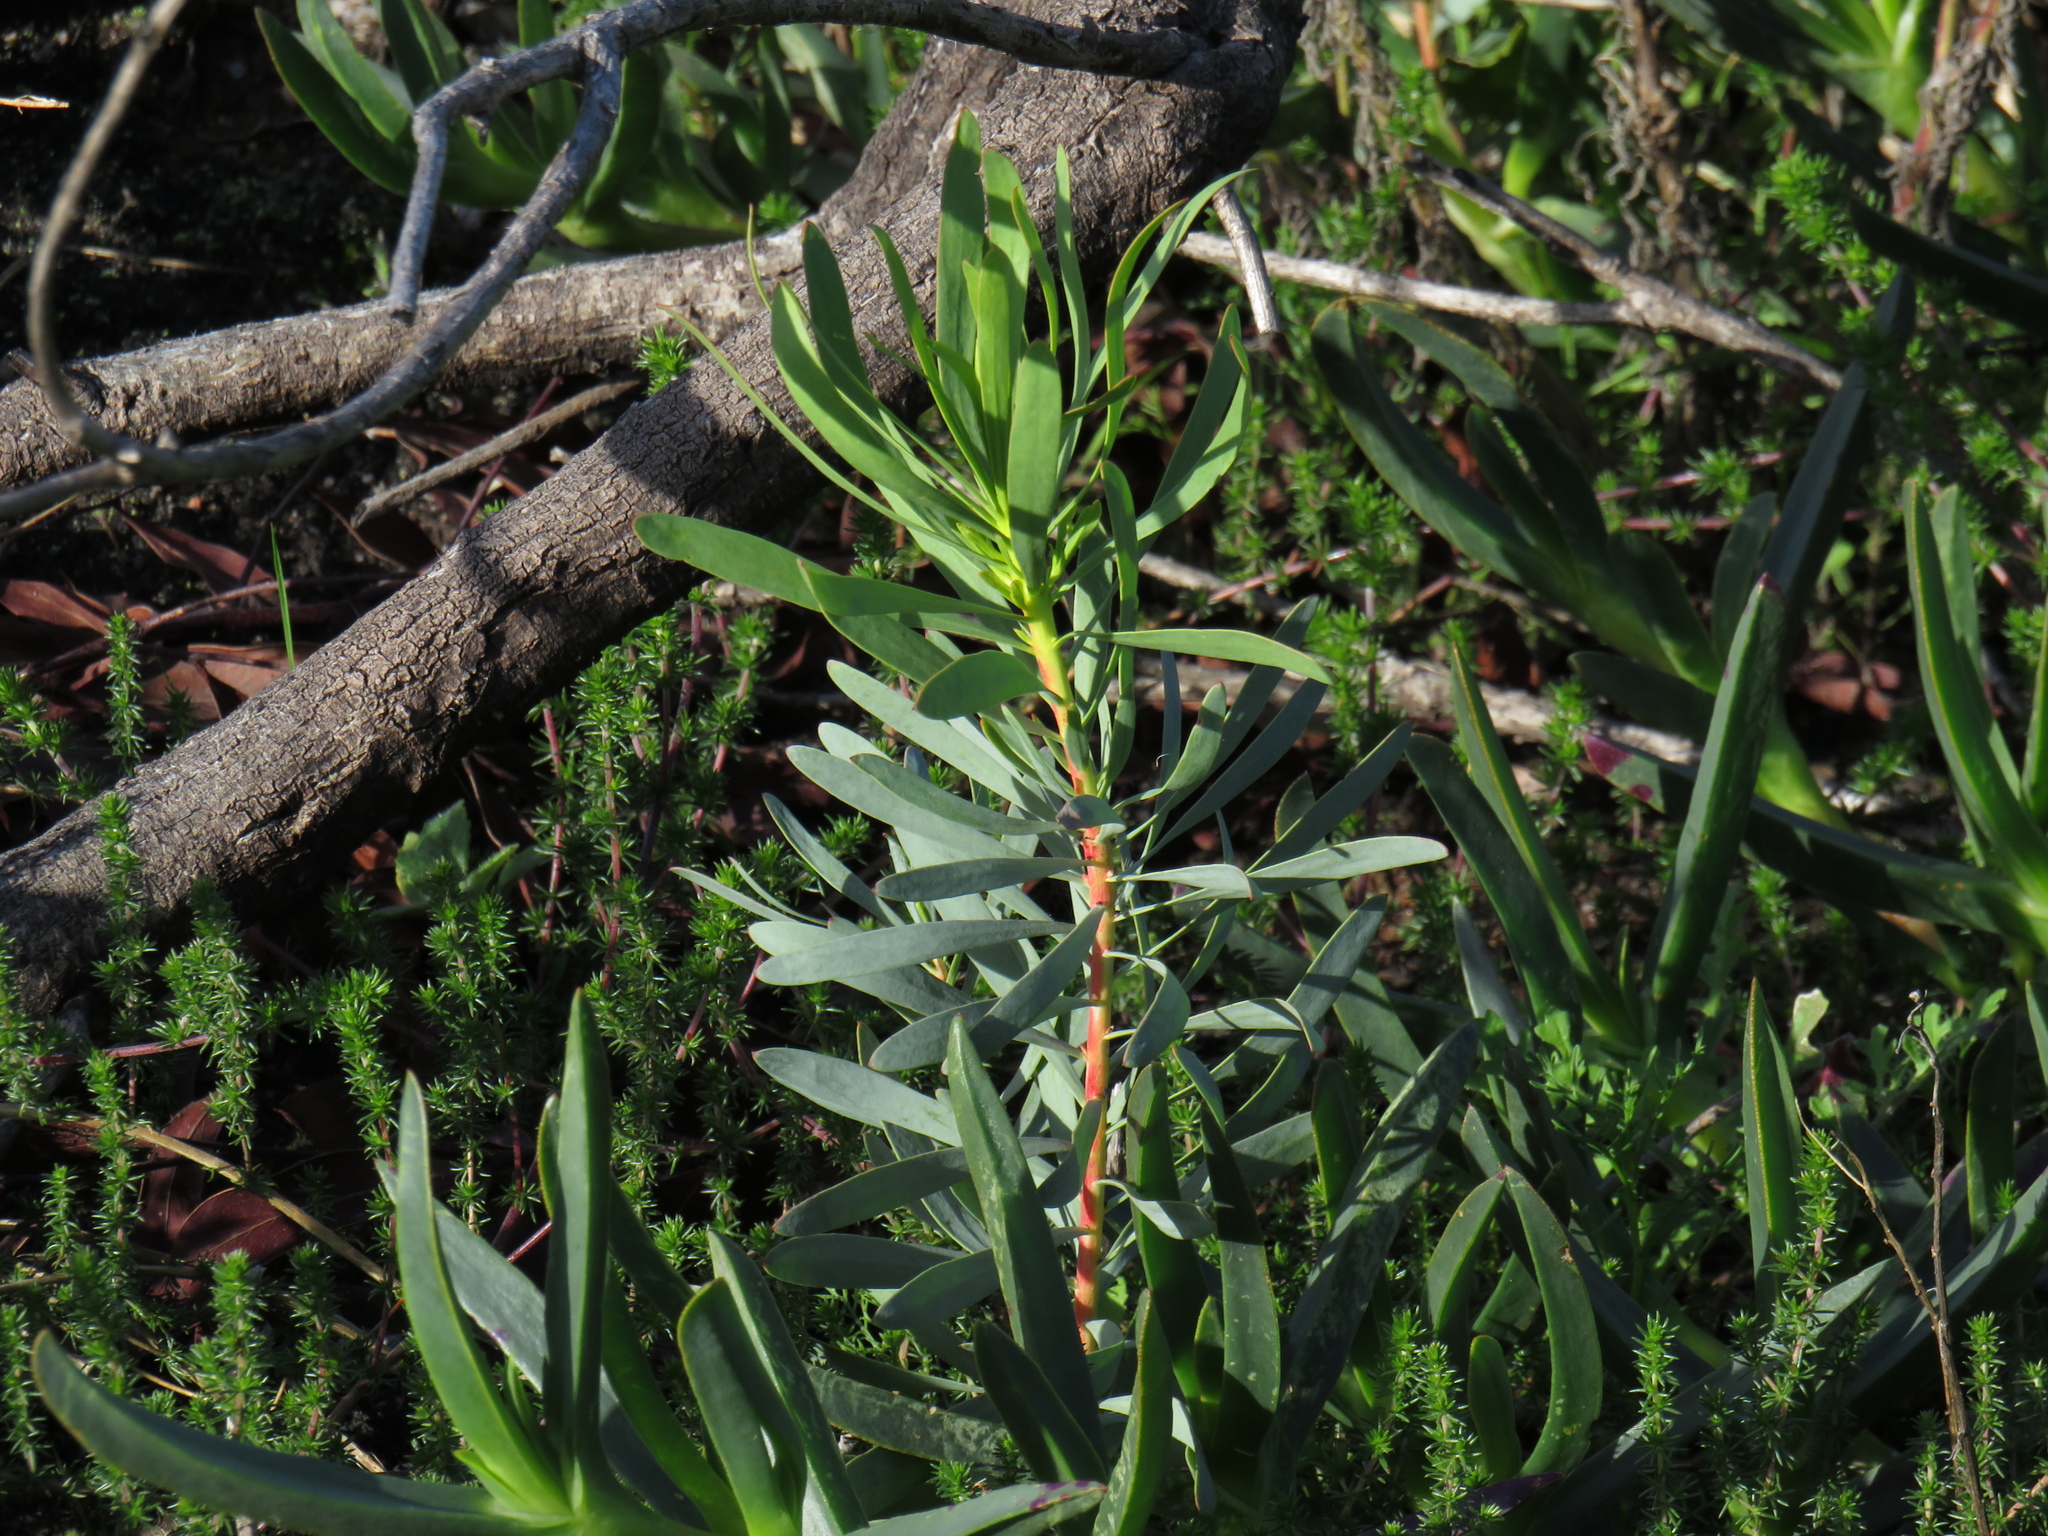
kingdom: Plantae
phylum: Tracheophyta
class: Magnoliopsida
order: Proteales
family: Proteaceae
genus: Protea
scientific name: Protea repens
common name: Sugarbush
